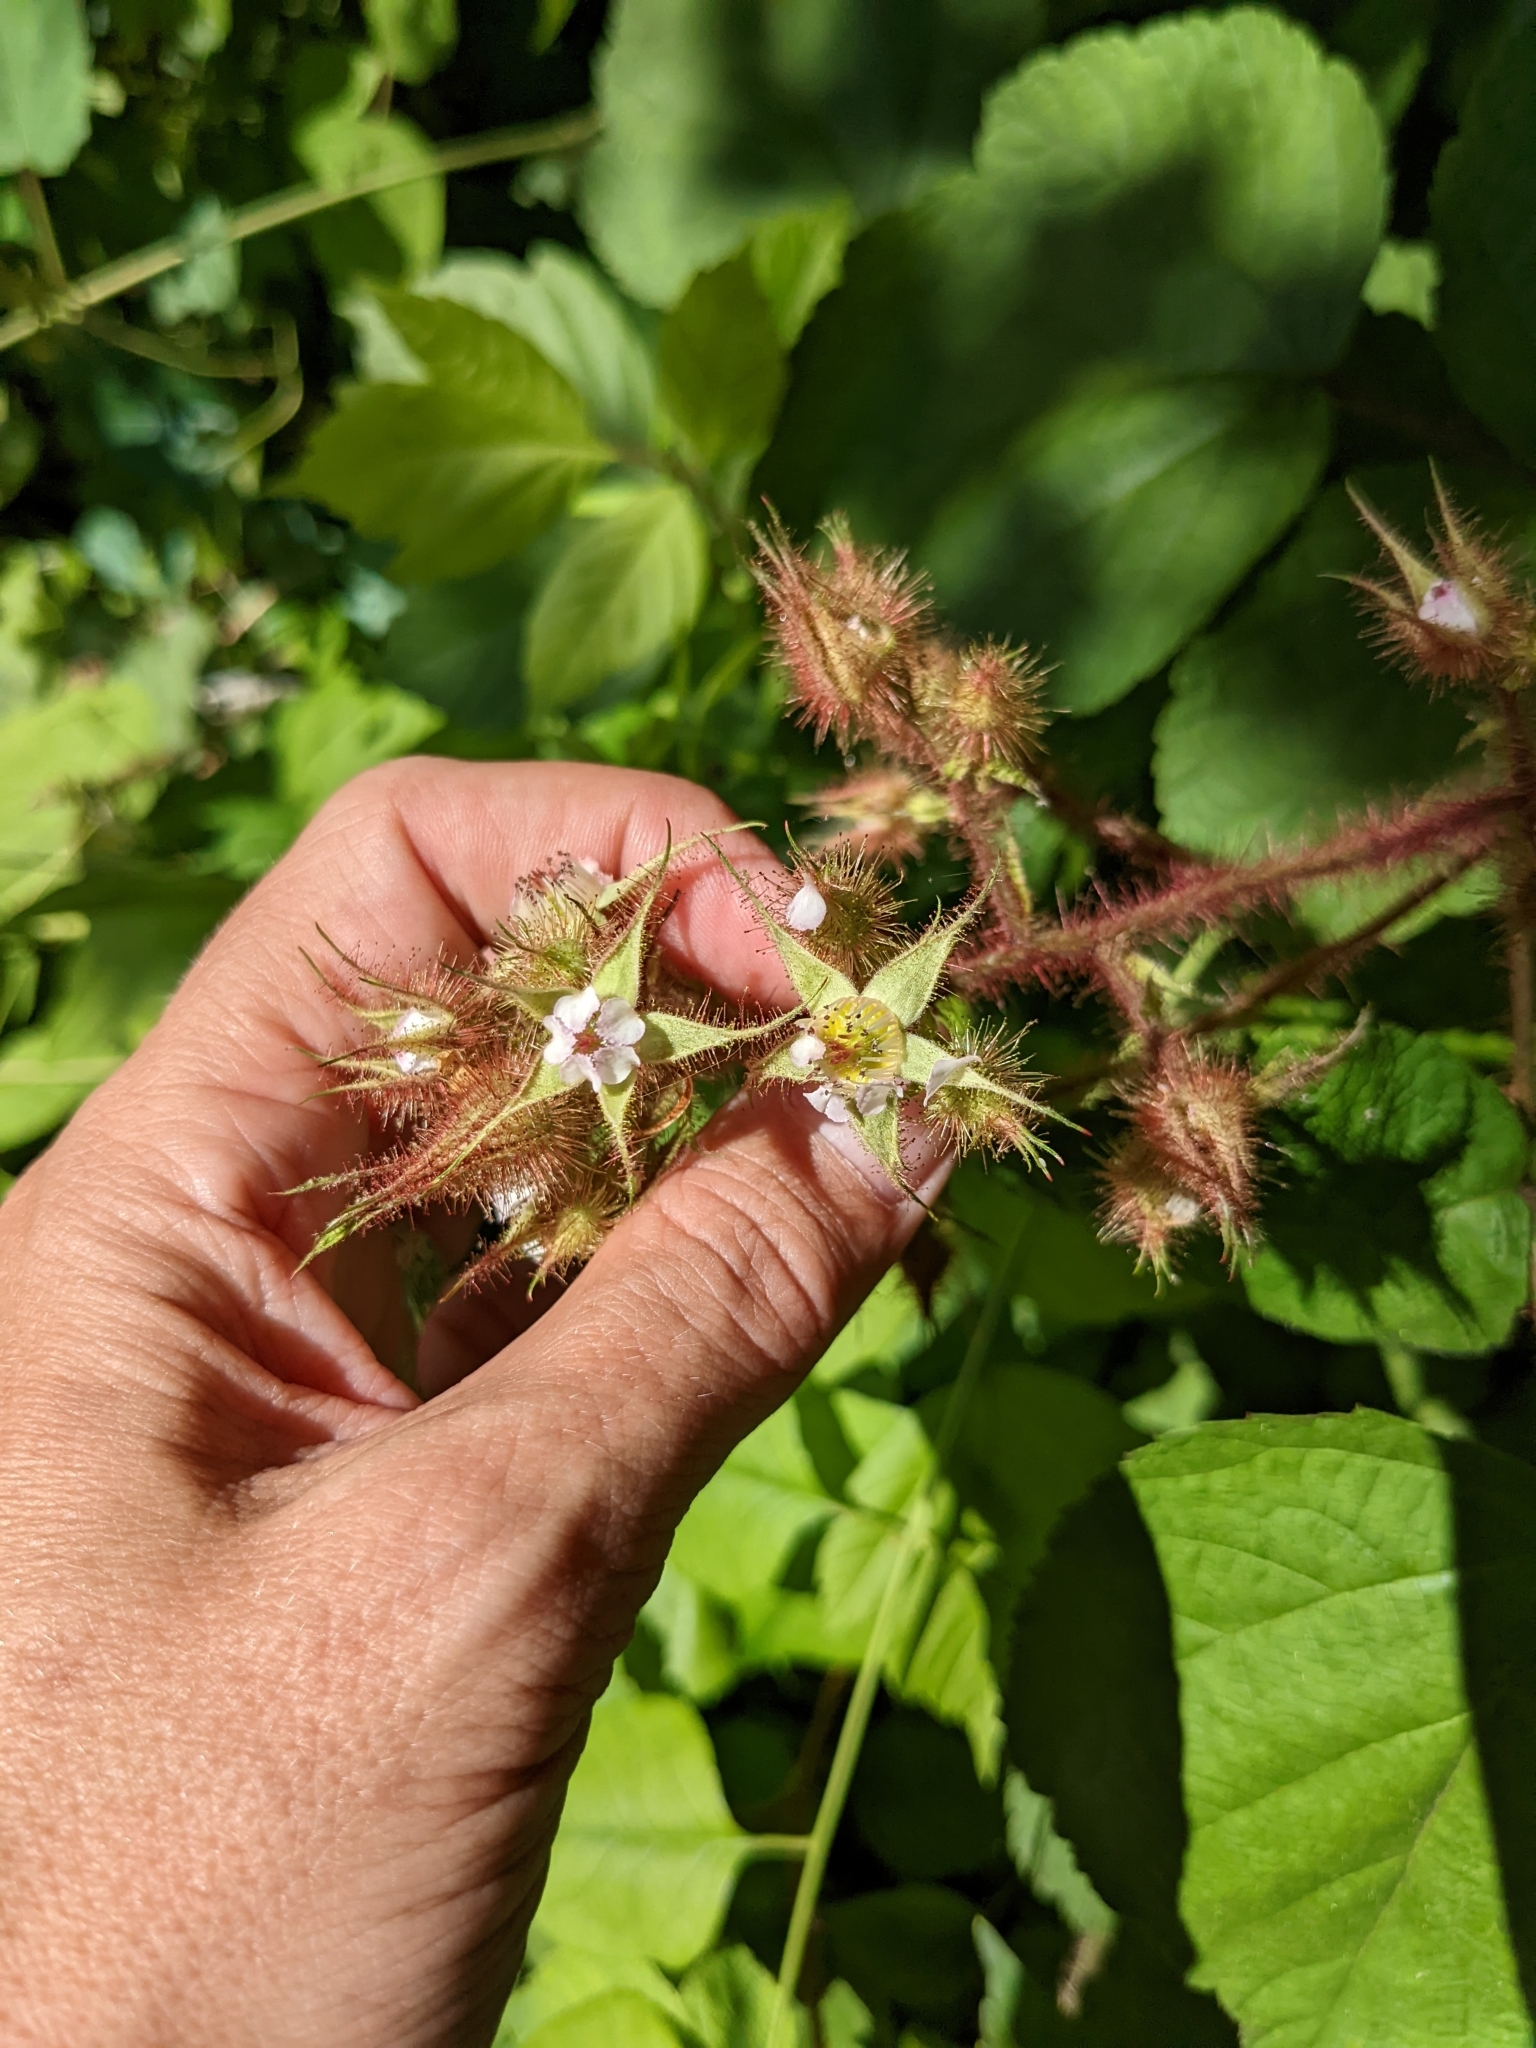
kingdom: Plantae
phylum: Tracheophyta
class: Magnoliopsida
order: Rosales
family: Rosaceae
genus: Rubus
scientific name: Rubus phoenicolasius
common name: Japanese wineberry
